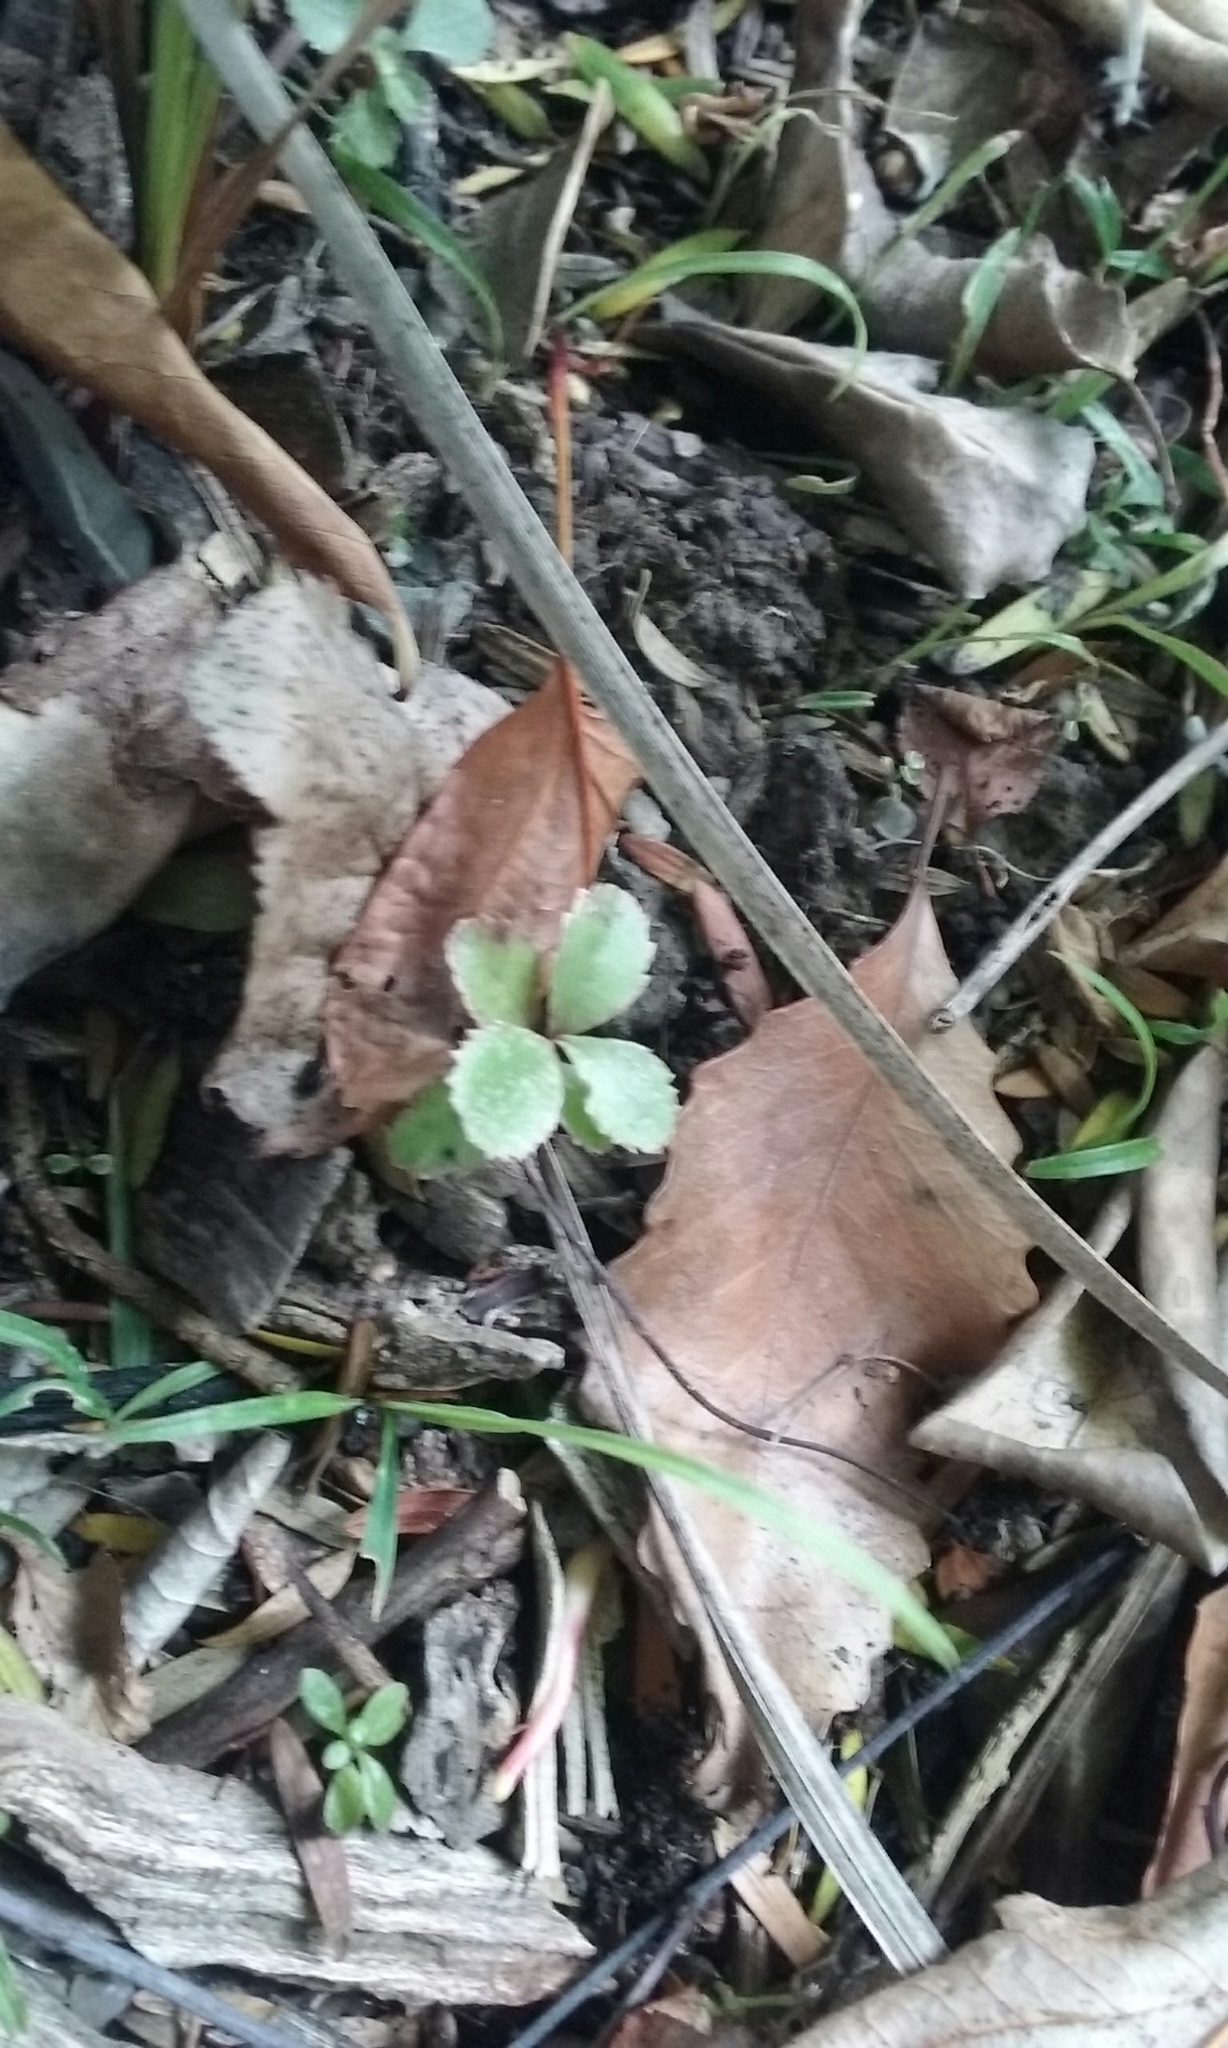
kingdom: Plantae
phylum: Tracheophyta
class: Magnoliopsida
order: Ericales
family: Primulaceae
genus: Myrsine
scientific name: Myrsine australis
